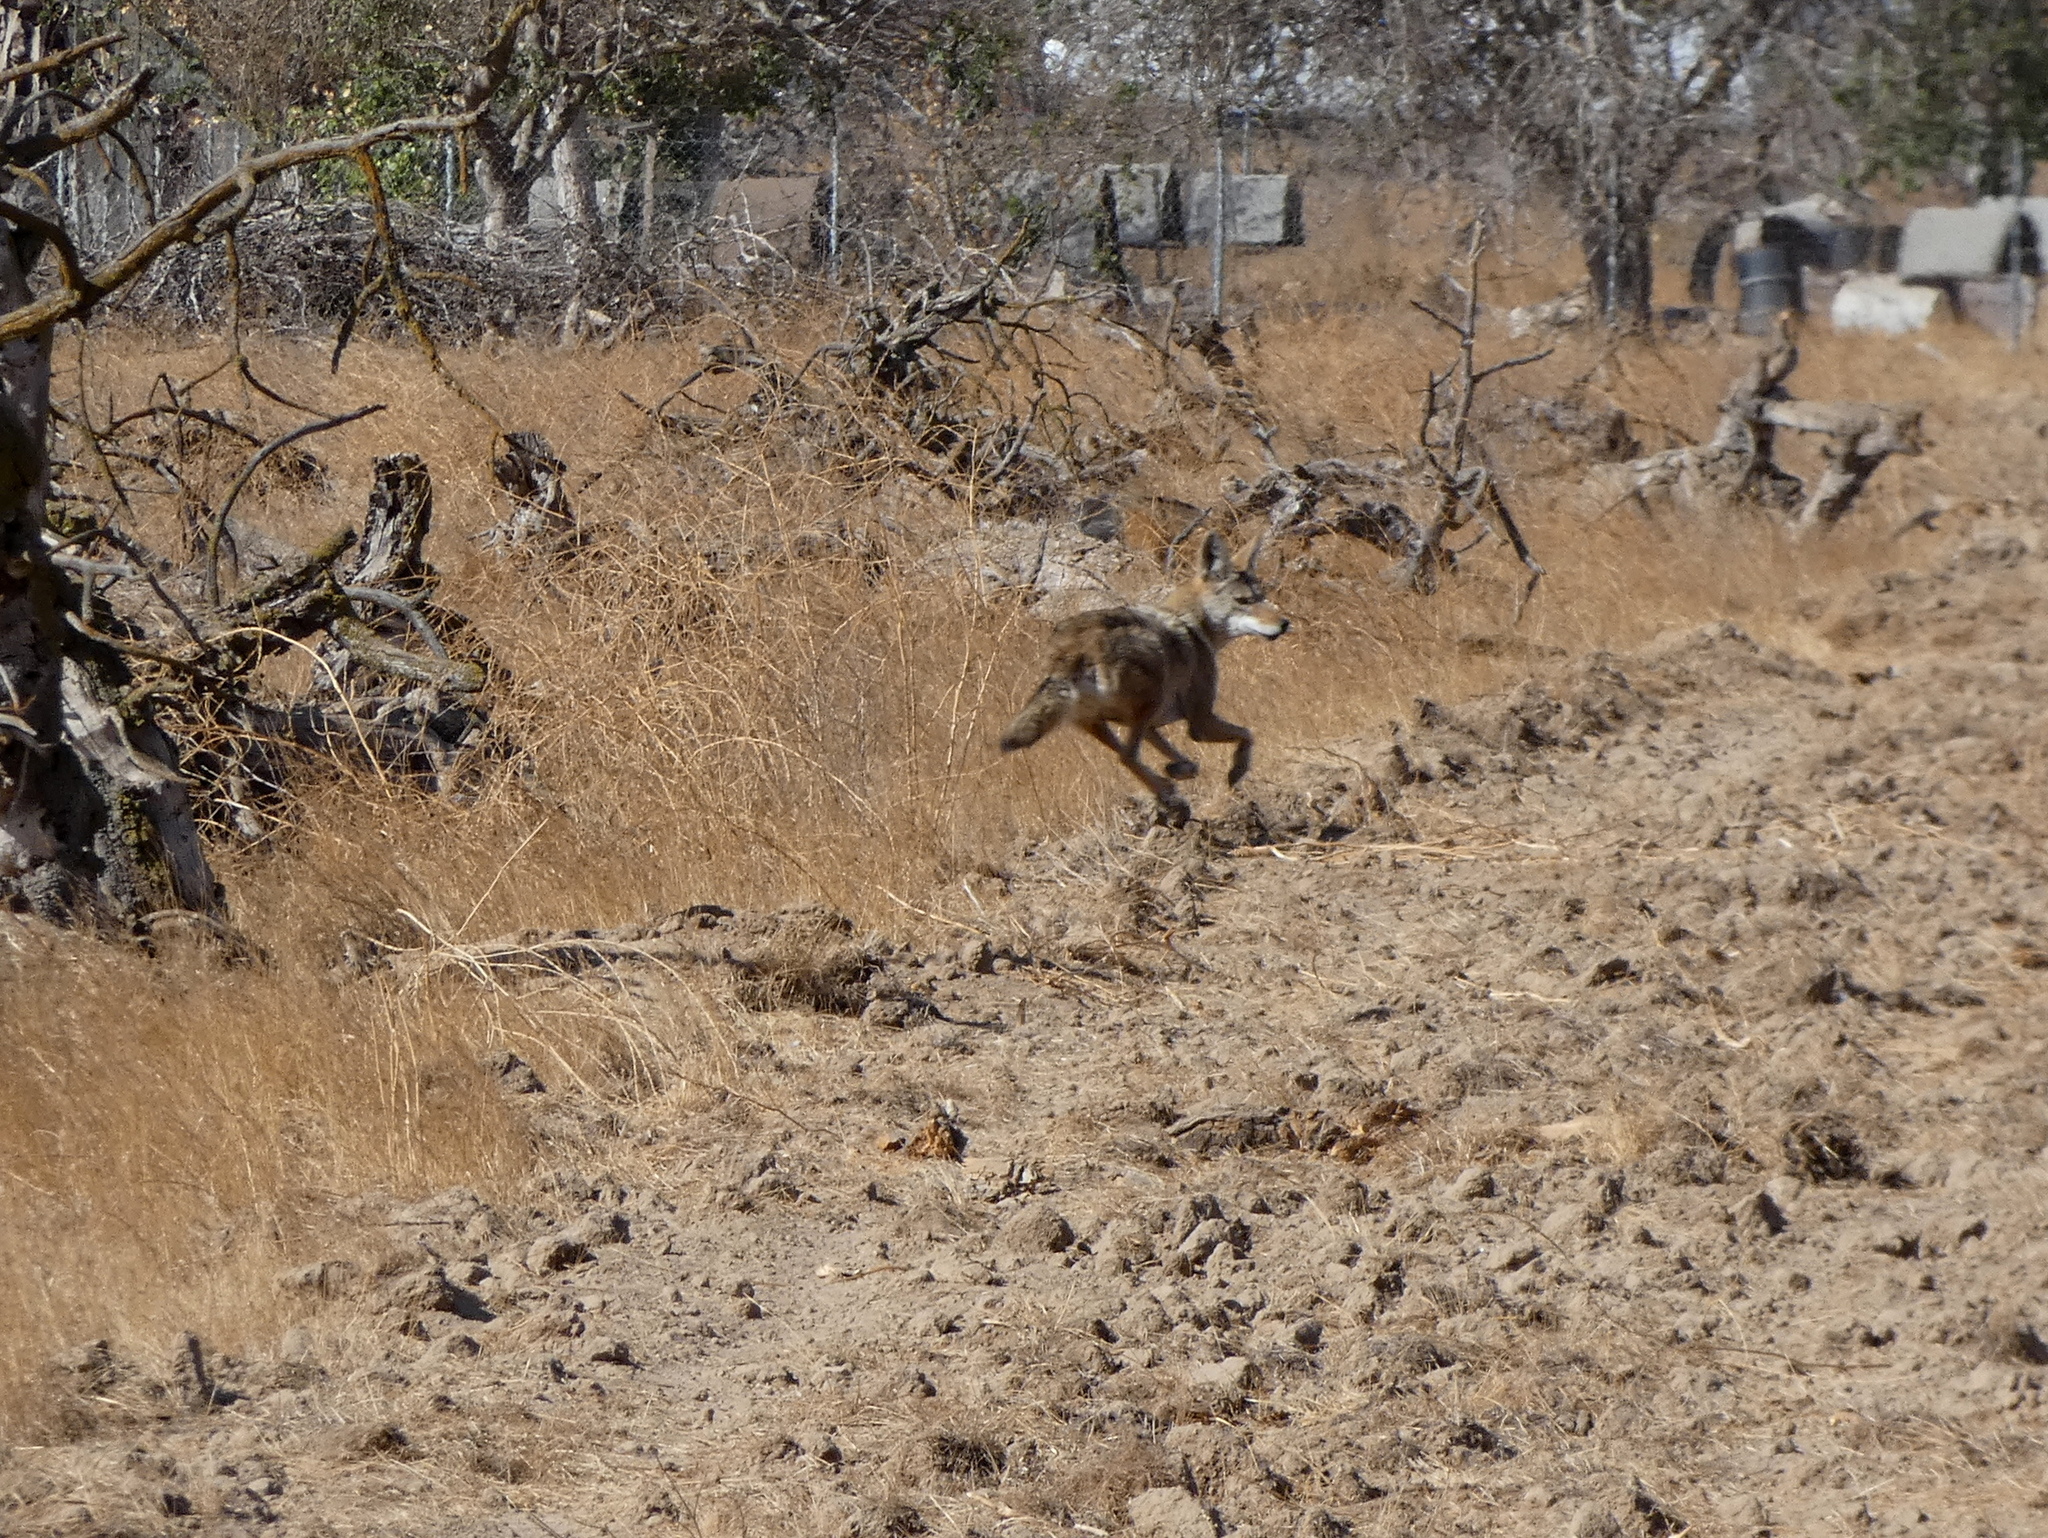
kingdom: Animalia
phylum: Chordata
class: Mammalia
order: Carnivora
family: Canidae
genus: Canis
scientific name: Canis latrans
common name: Coyote
